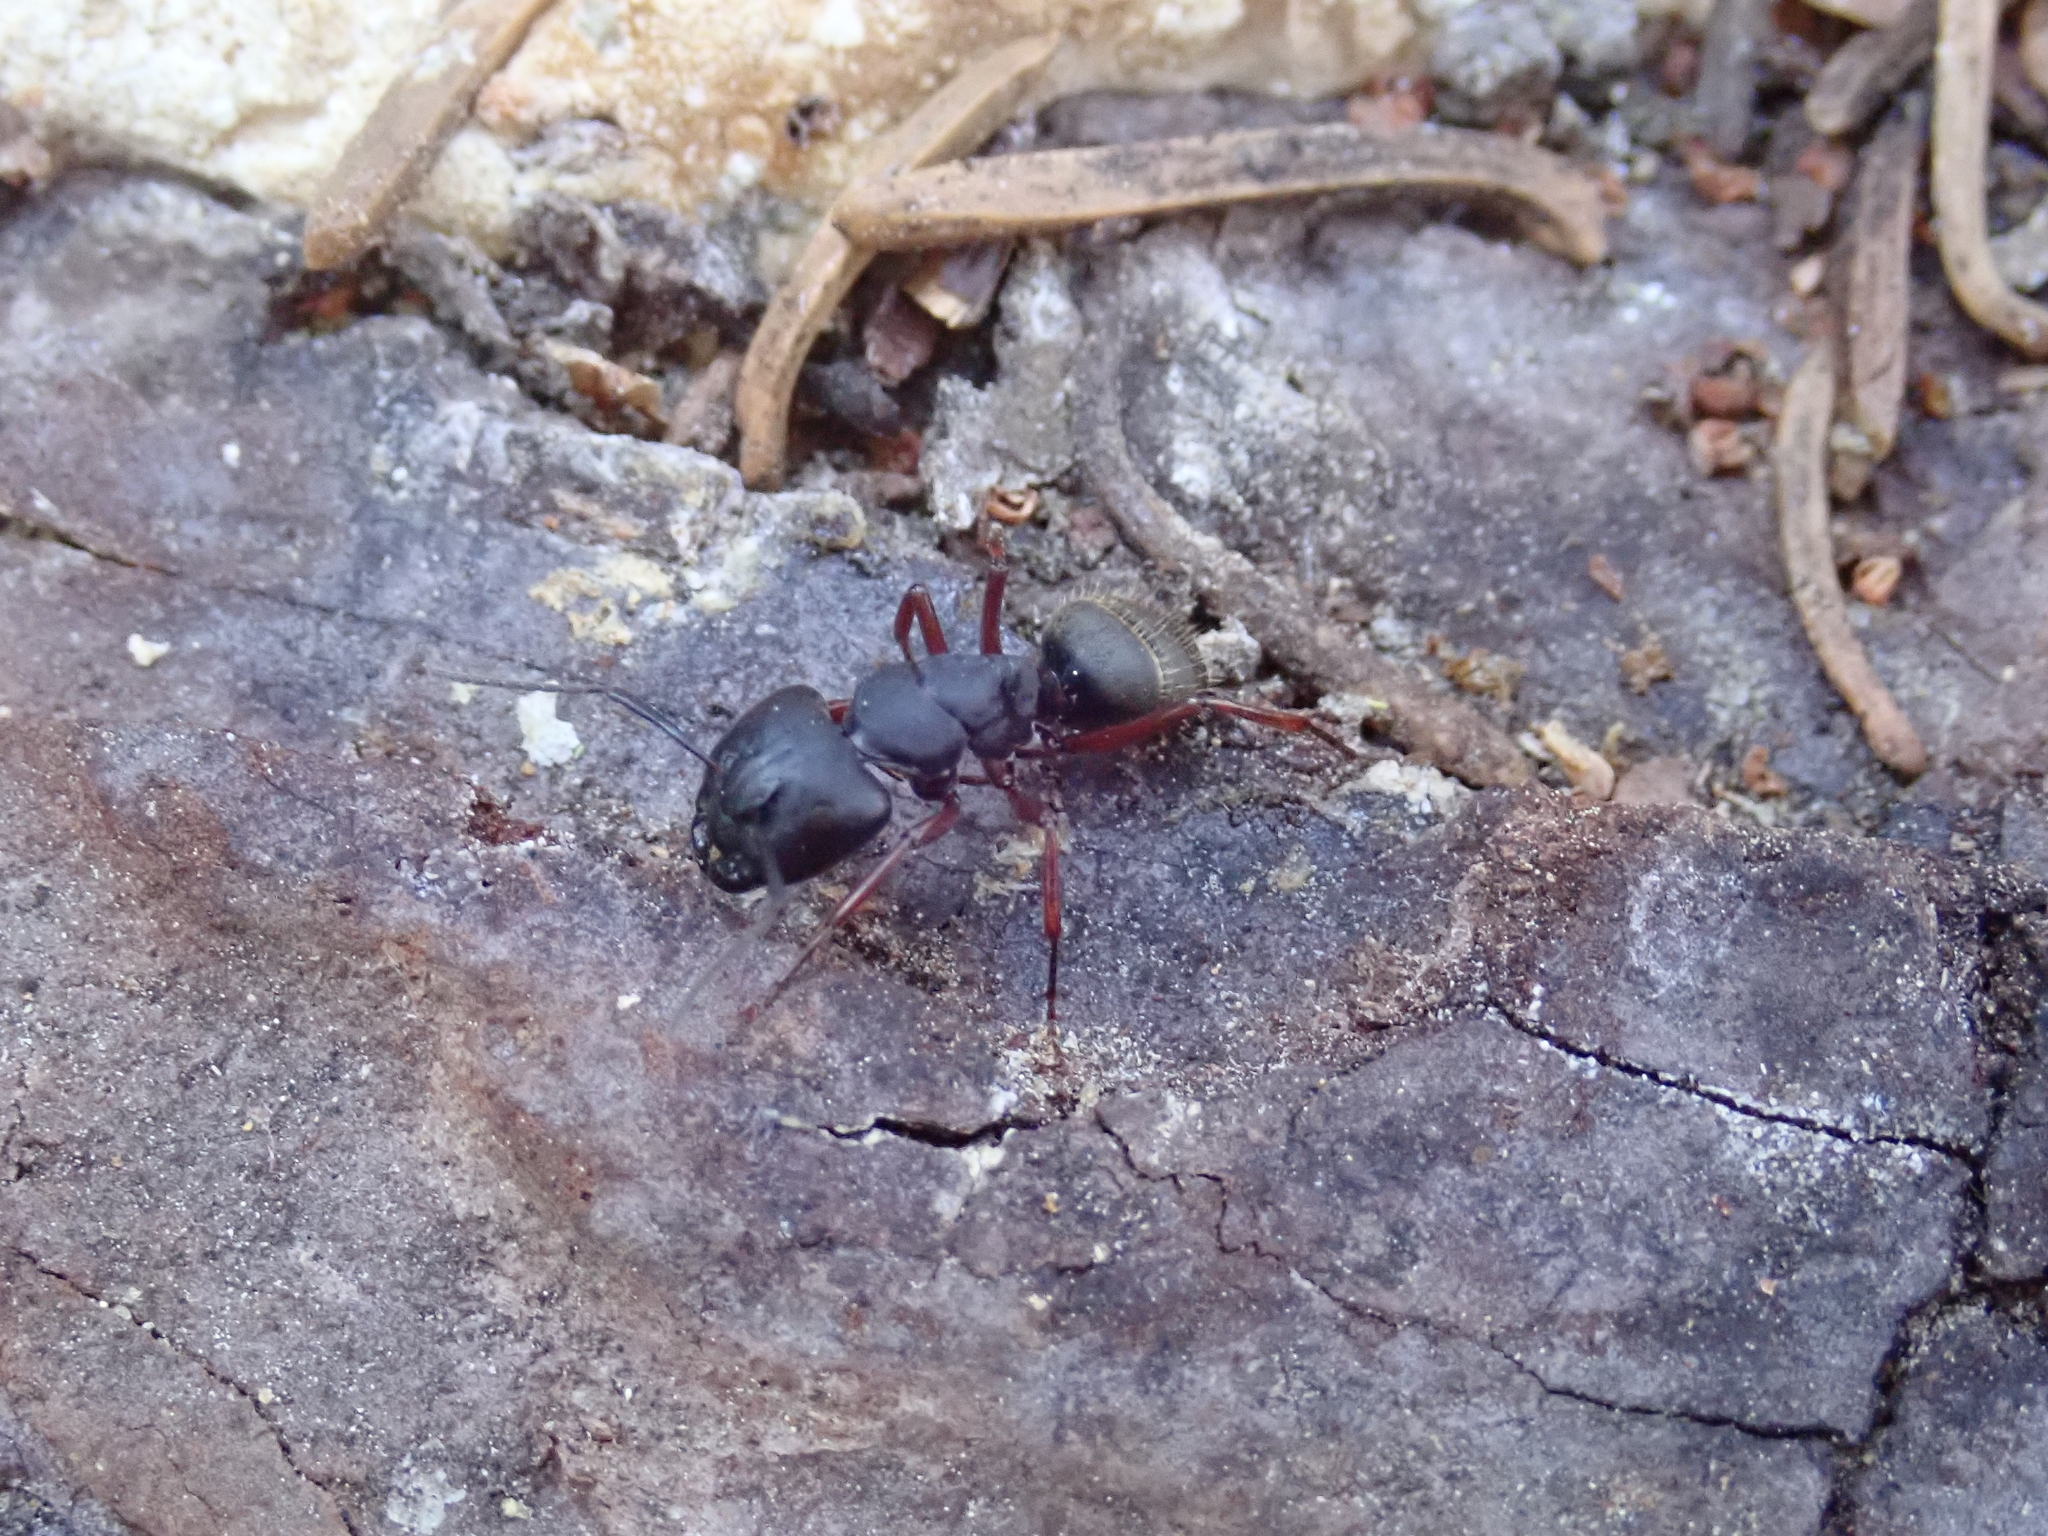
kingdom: Animalia
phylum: Arthropoda
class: Insecta
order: Hymenoptera
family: Formicidae
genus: Camponotus
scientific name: Camponotus modoc
